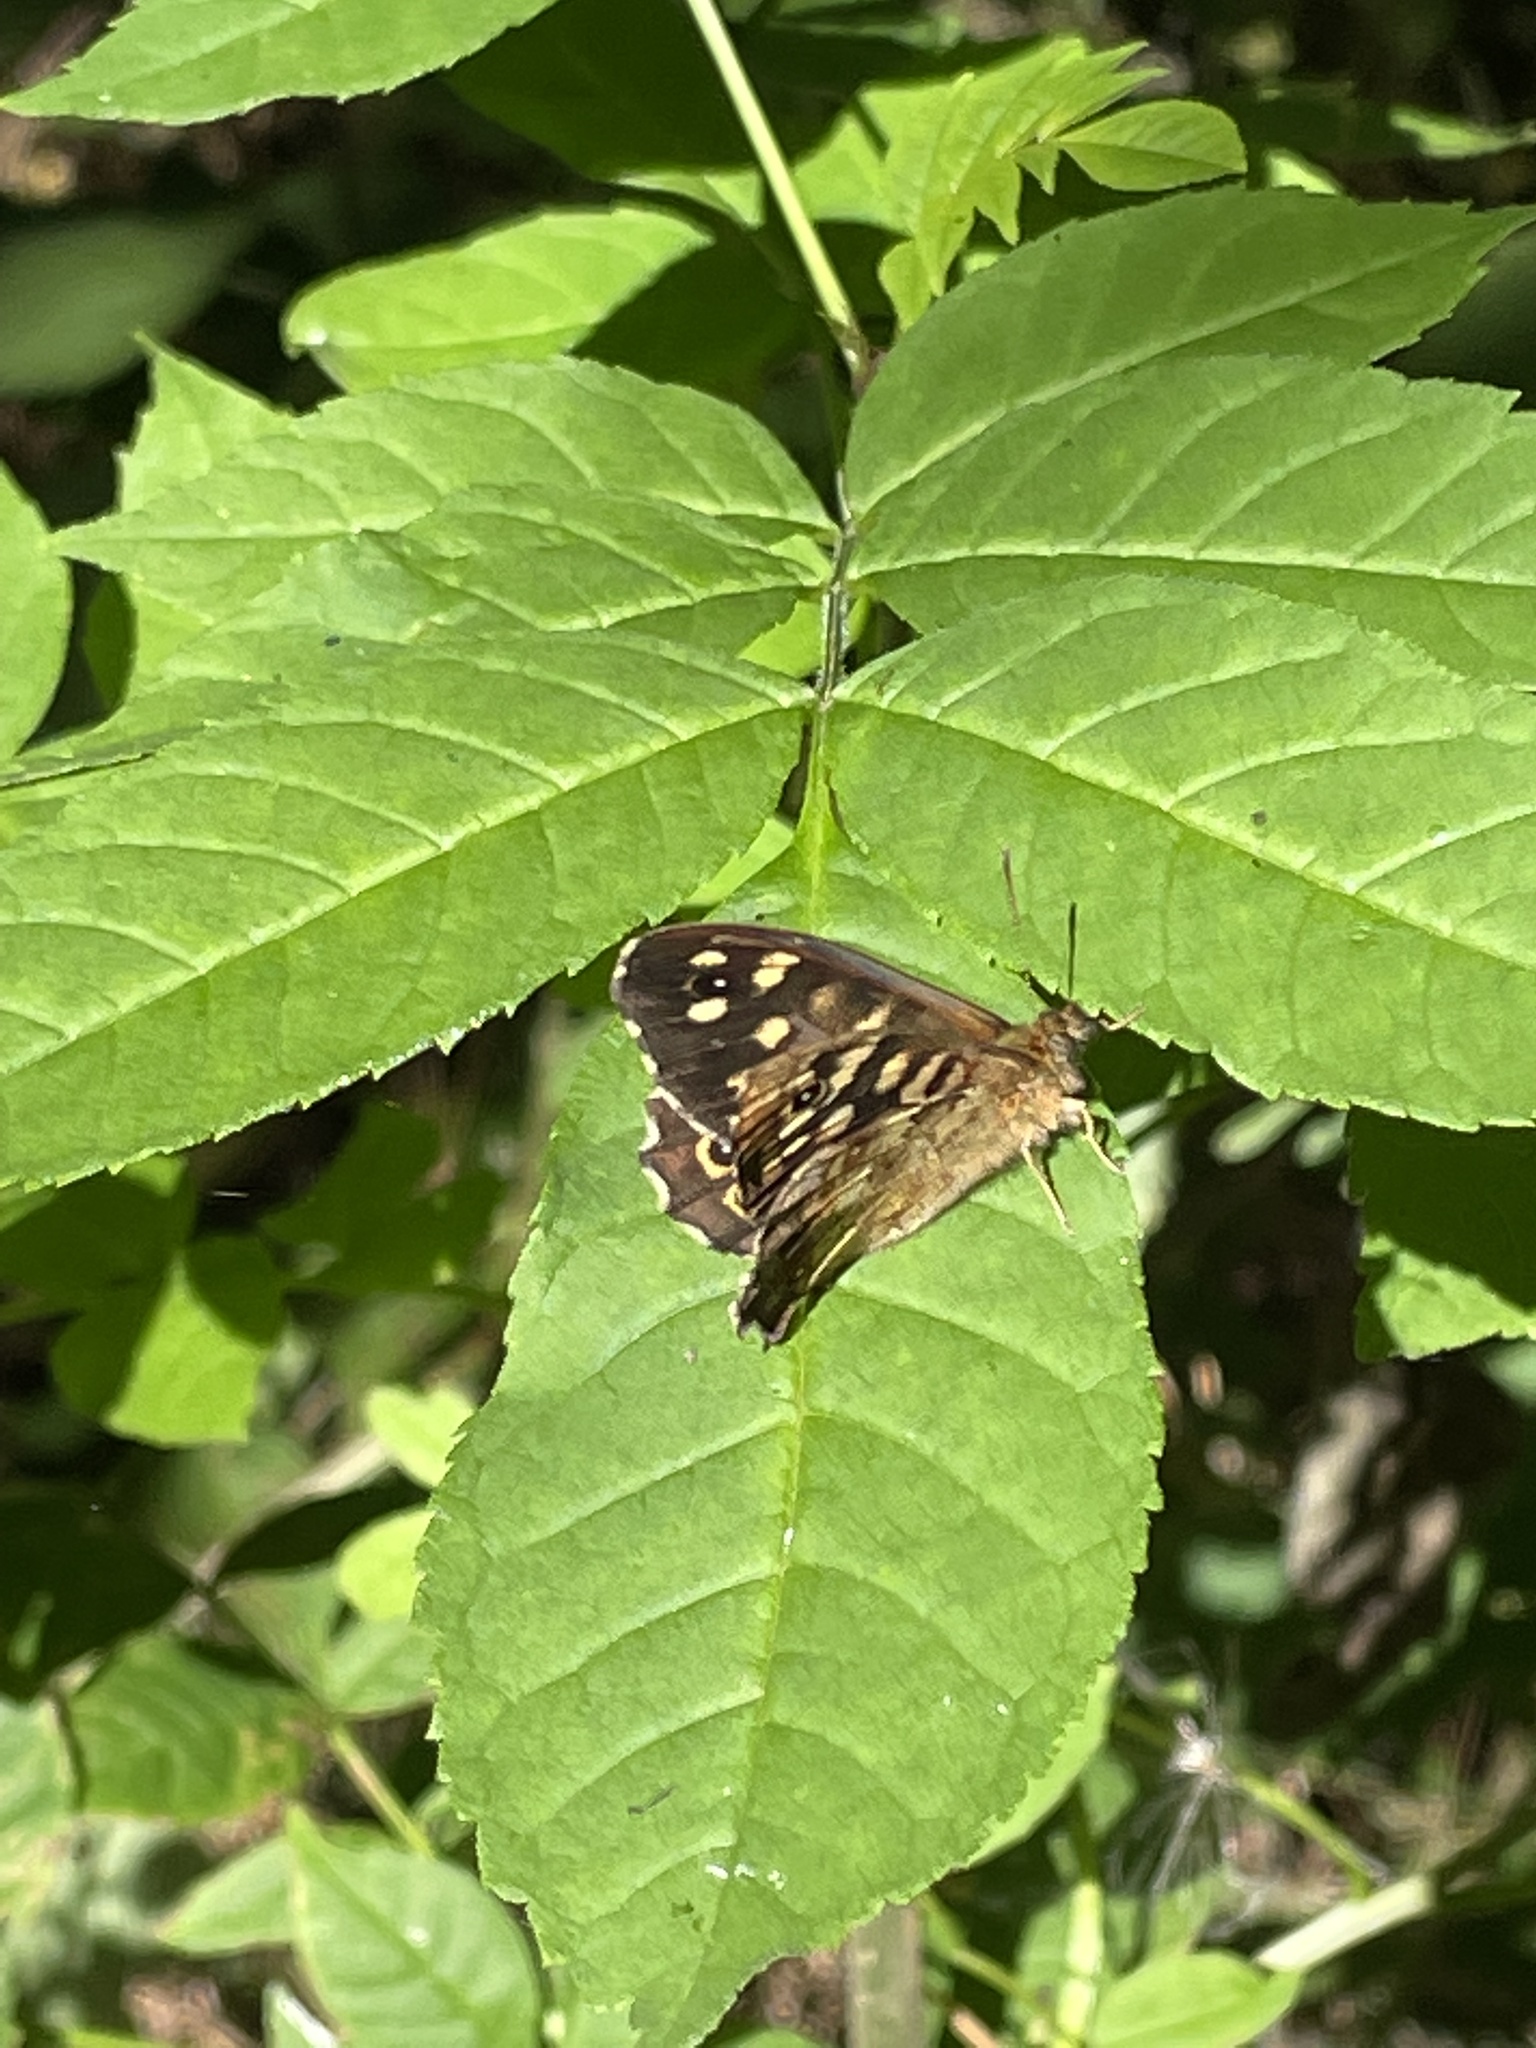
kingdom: Animalia
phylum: Arthropoda
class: Insecta
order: Lepidoptera
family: Nymphalidae
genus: Pararge
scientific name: Pararge aegeria
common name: Speckled wood
